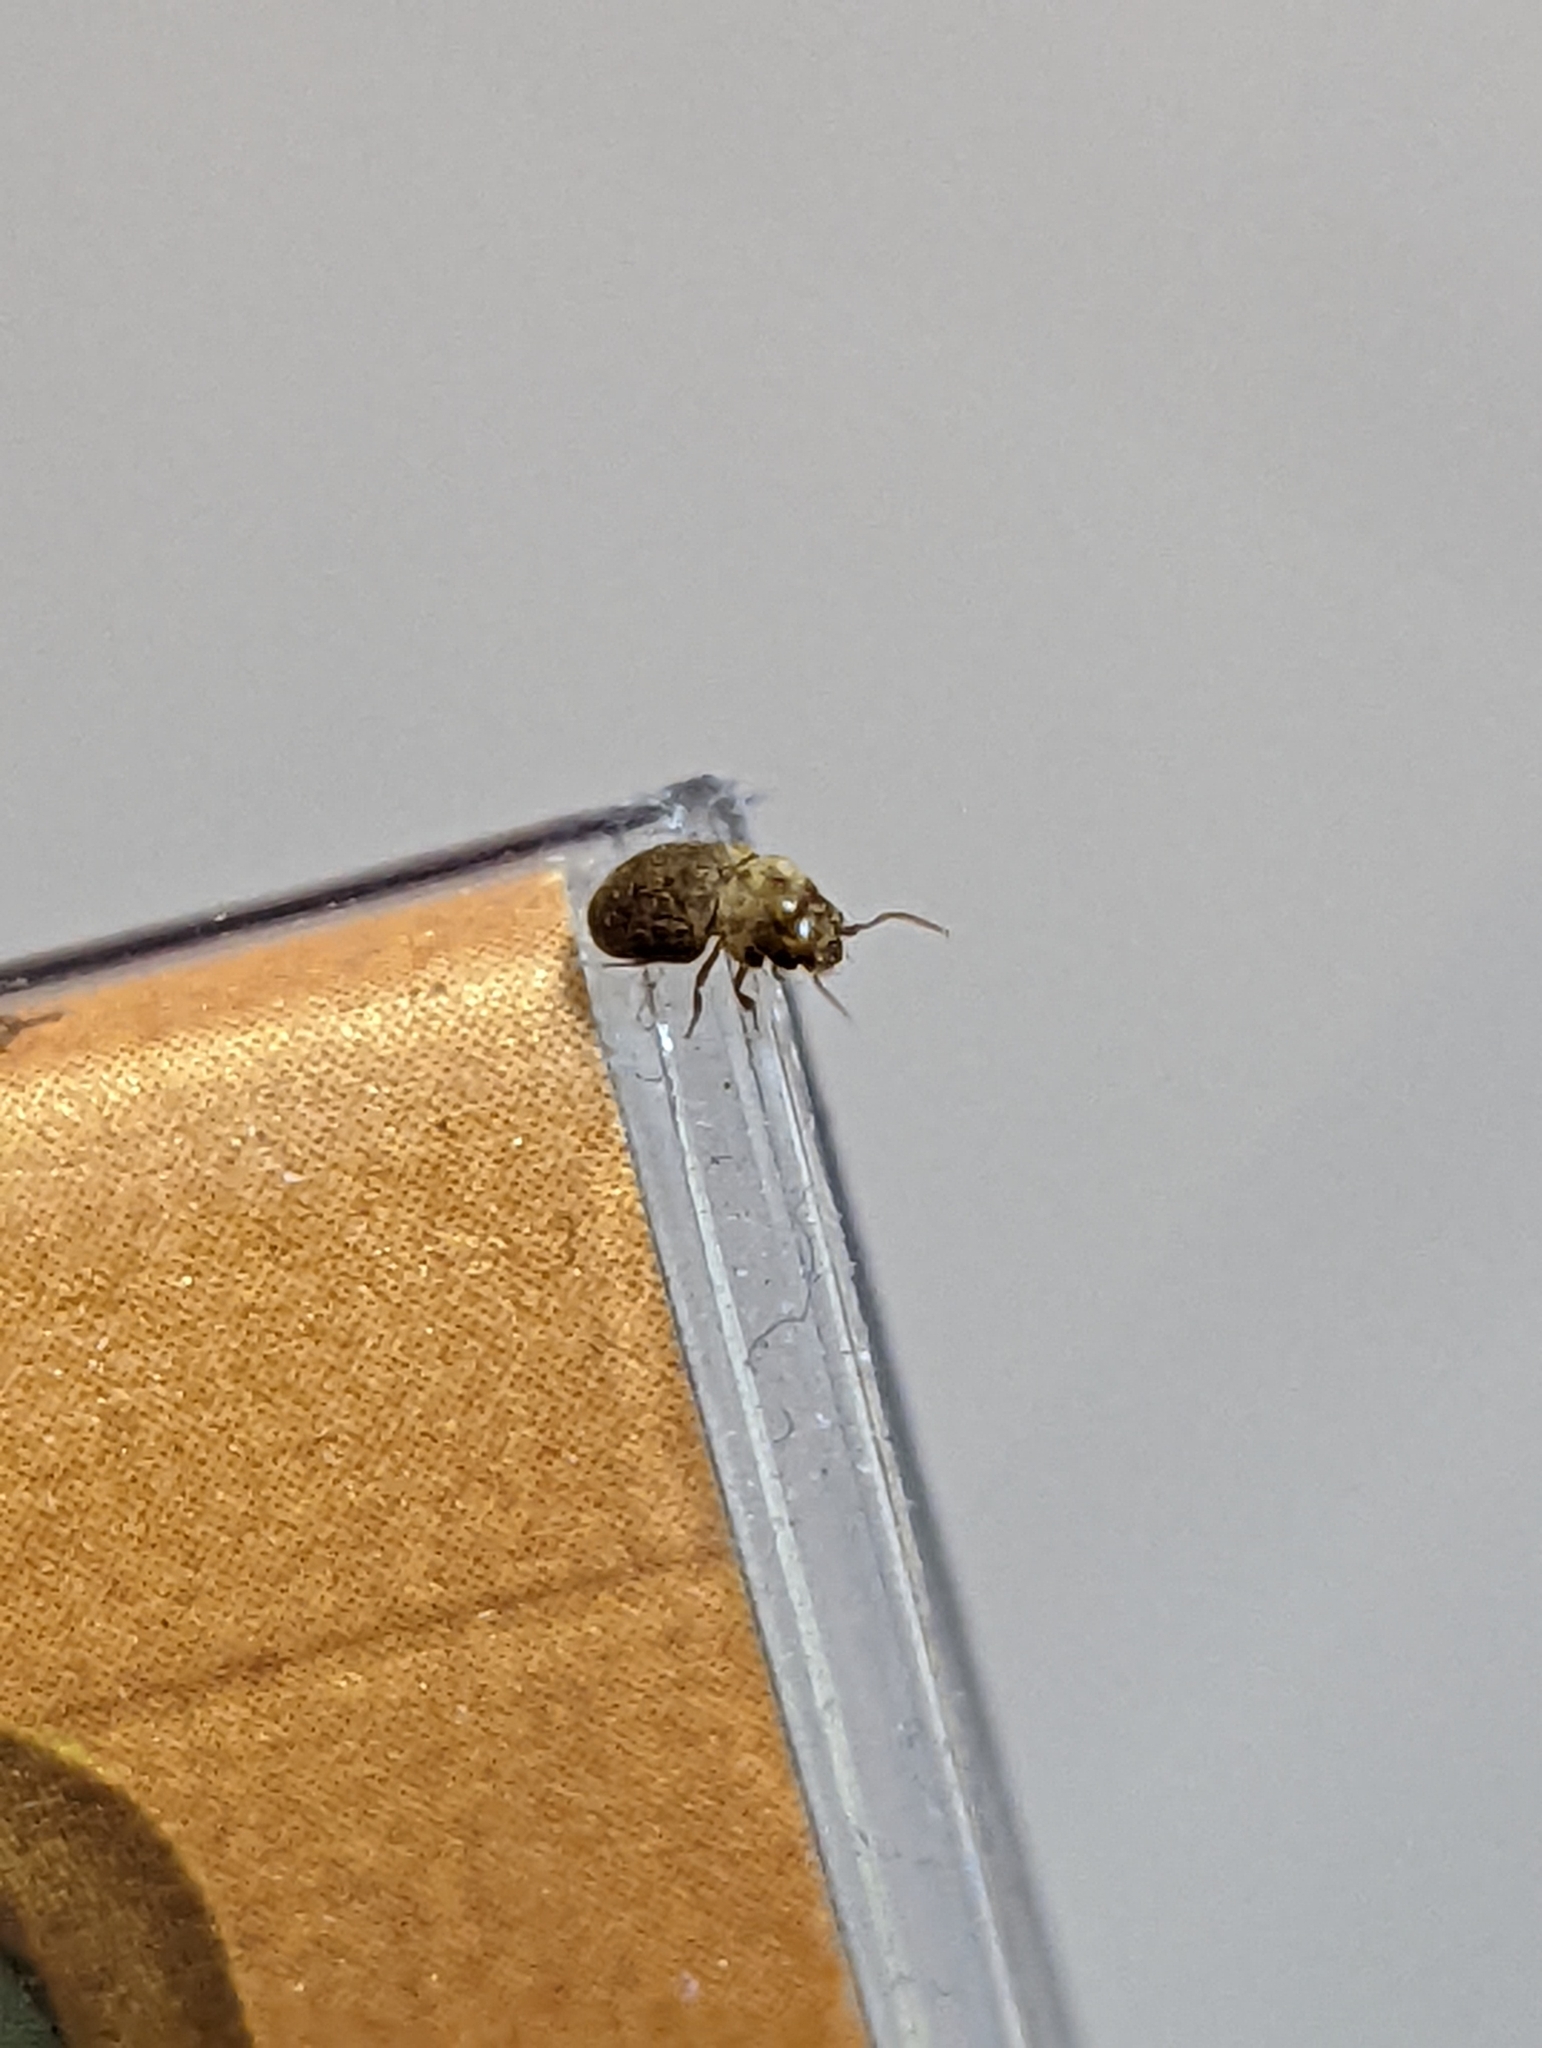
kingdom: Animalia
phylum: Arthropoda
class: Insecta
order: Coleoptera
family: Anobiidae
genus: Lasioderma
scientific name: Lasioderma serricorne
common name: Cigarette beetle
